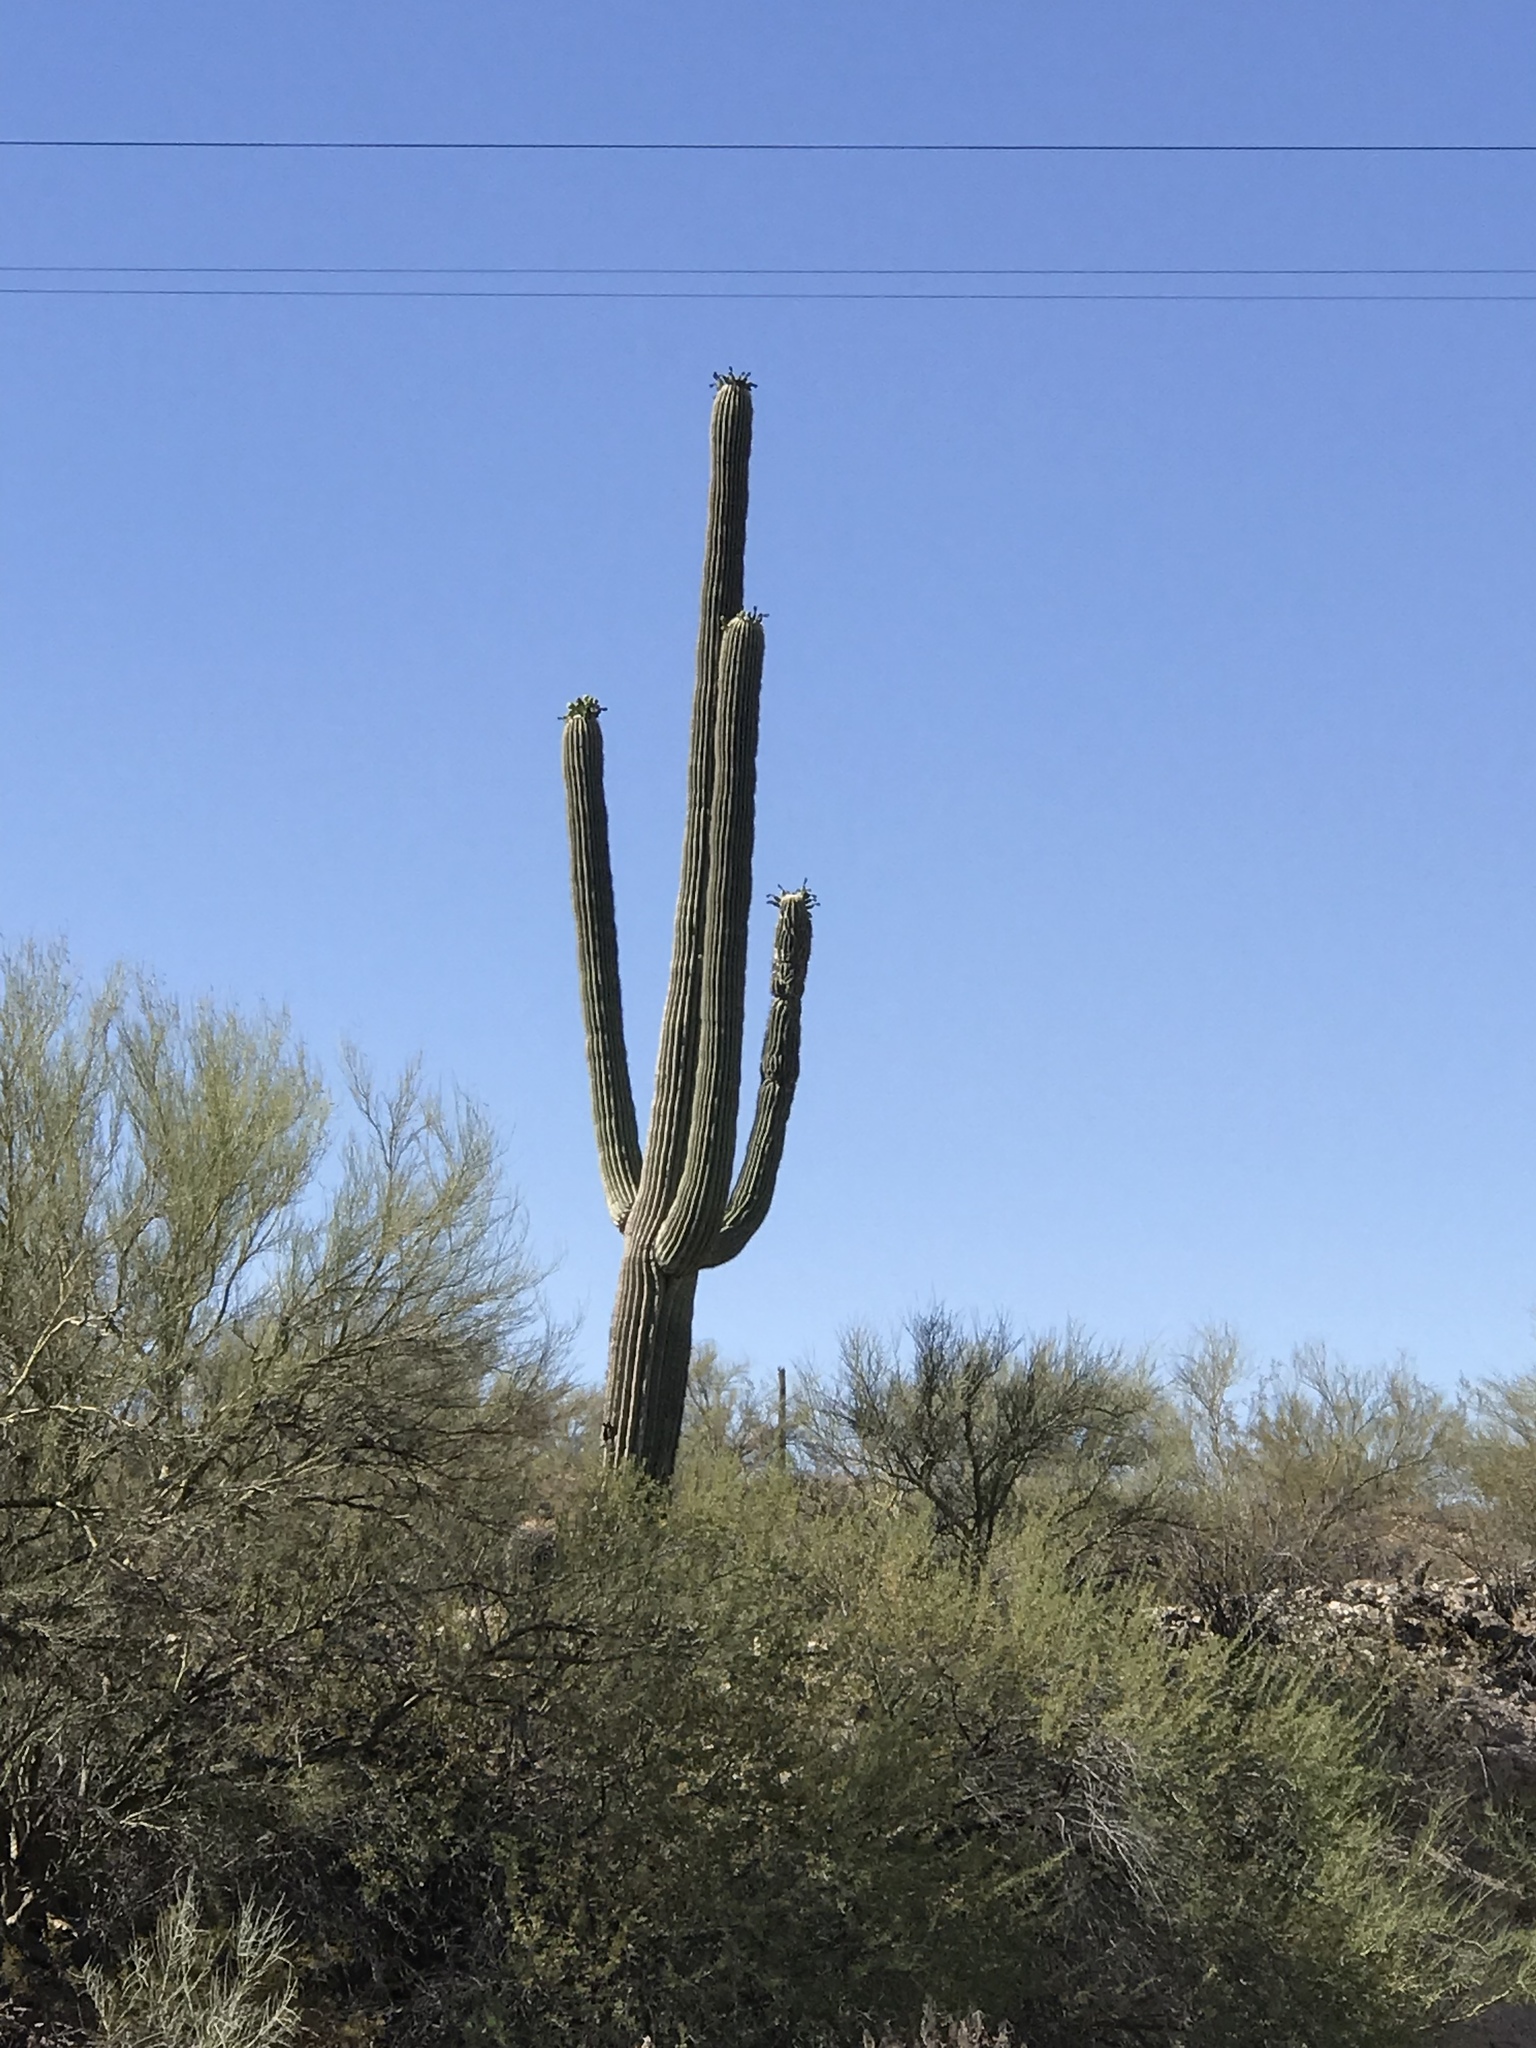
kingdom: Plantae
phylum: Tracheophyta
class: Magnoliopsida
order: Caryophyllales
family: Cactaceae
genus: Carnegiea
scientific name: Carnegiea gigantea
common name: Saguaro
